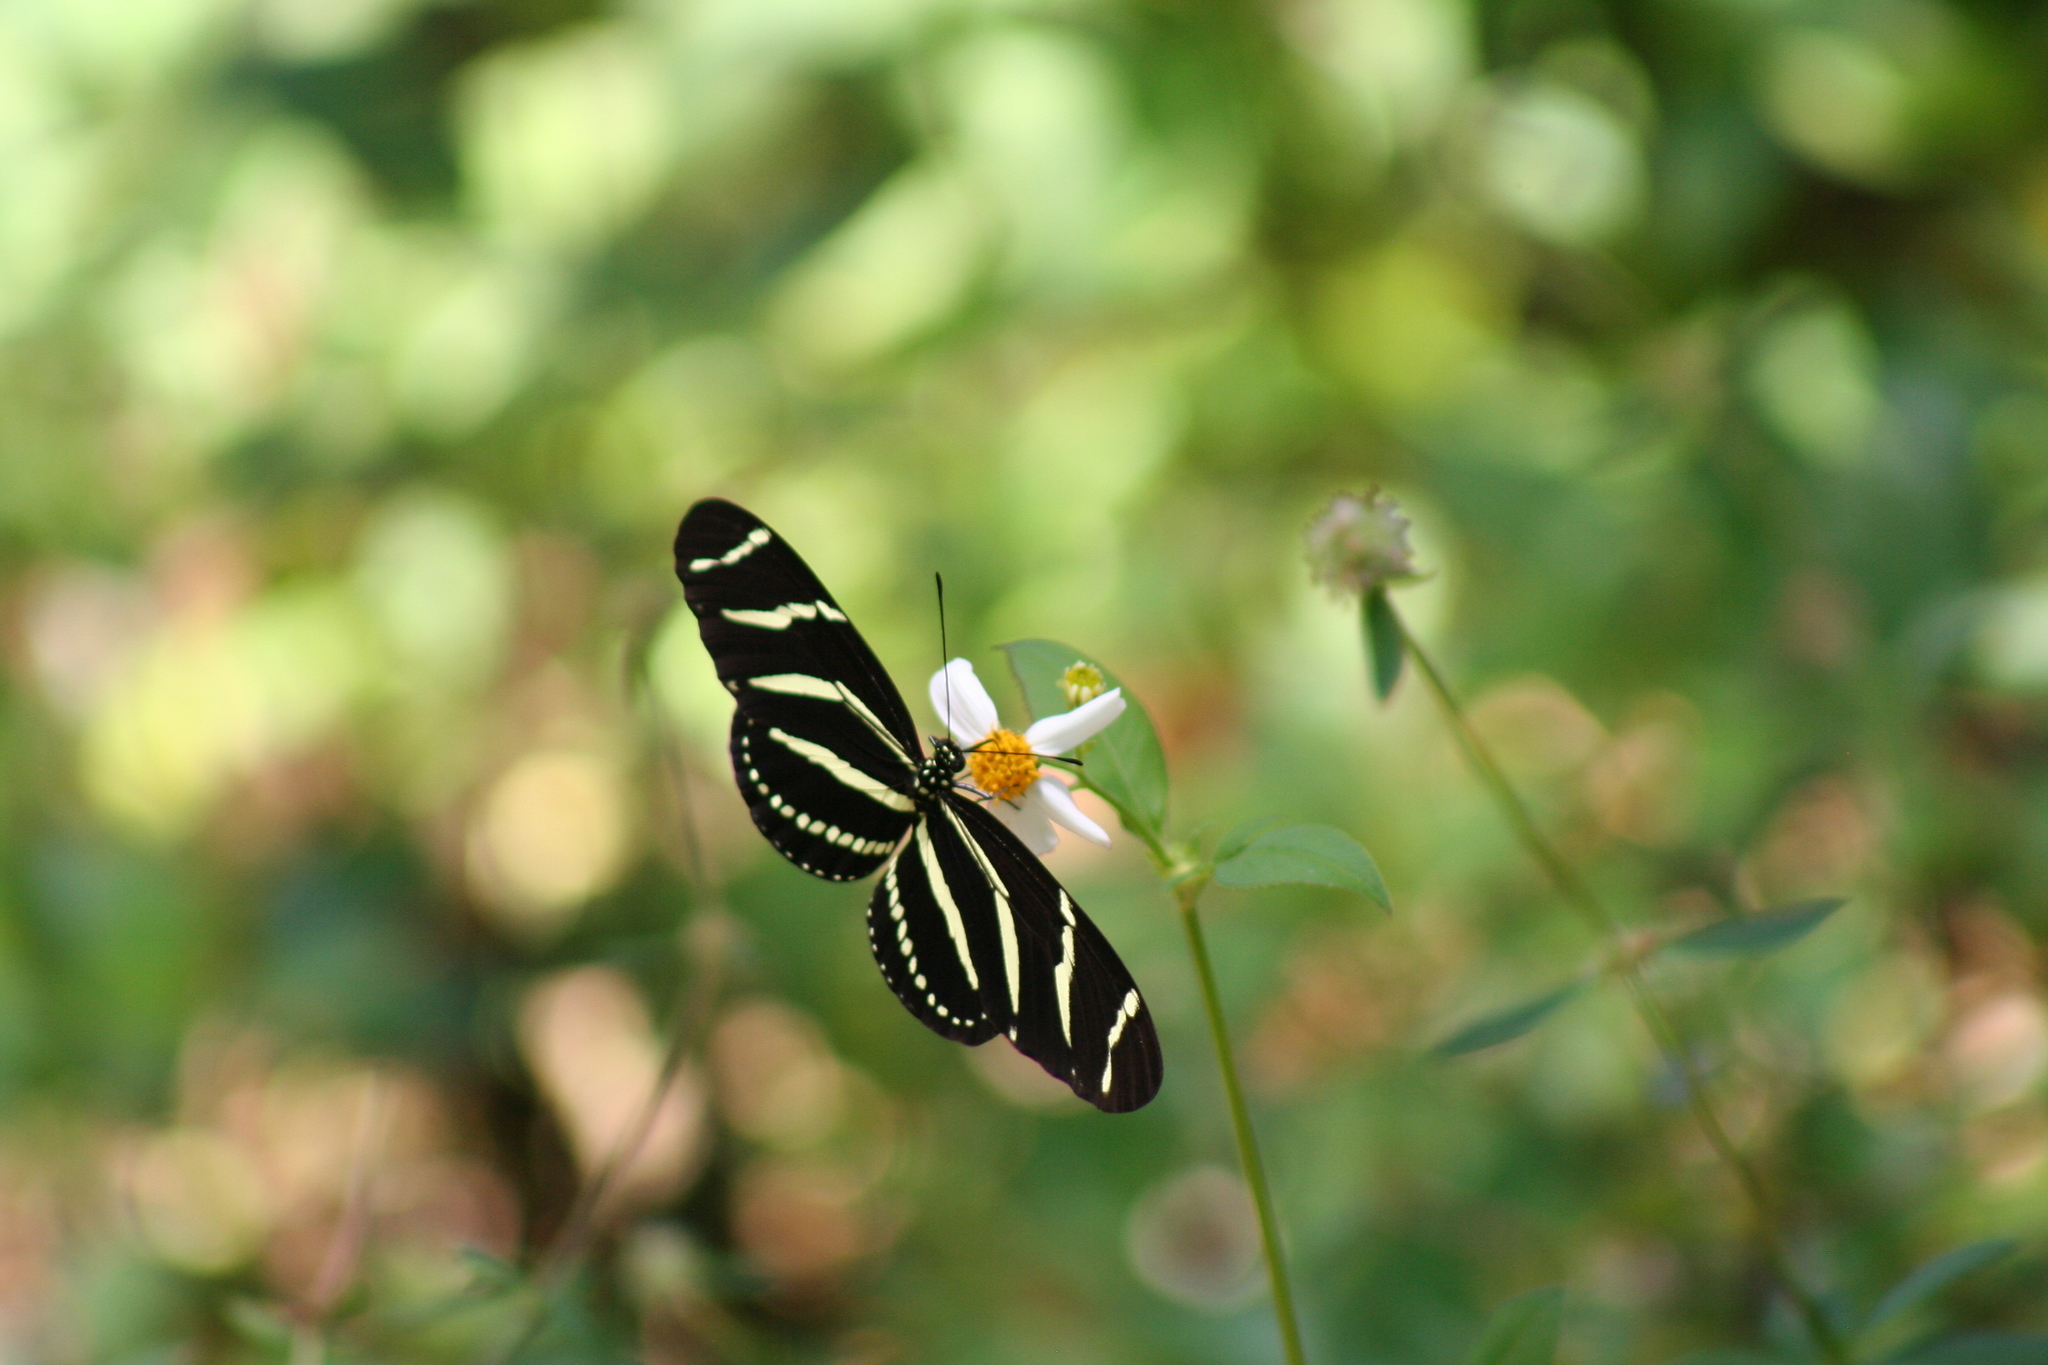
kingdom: Animalia
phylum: Arthropoda
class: Insecta
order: Lepidoptera
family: Nymphalidae
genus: Heliconius
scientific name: Heliconius charithonia
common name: Zebra long wing
